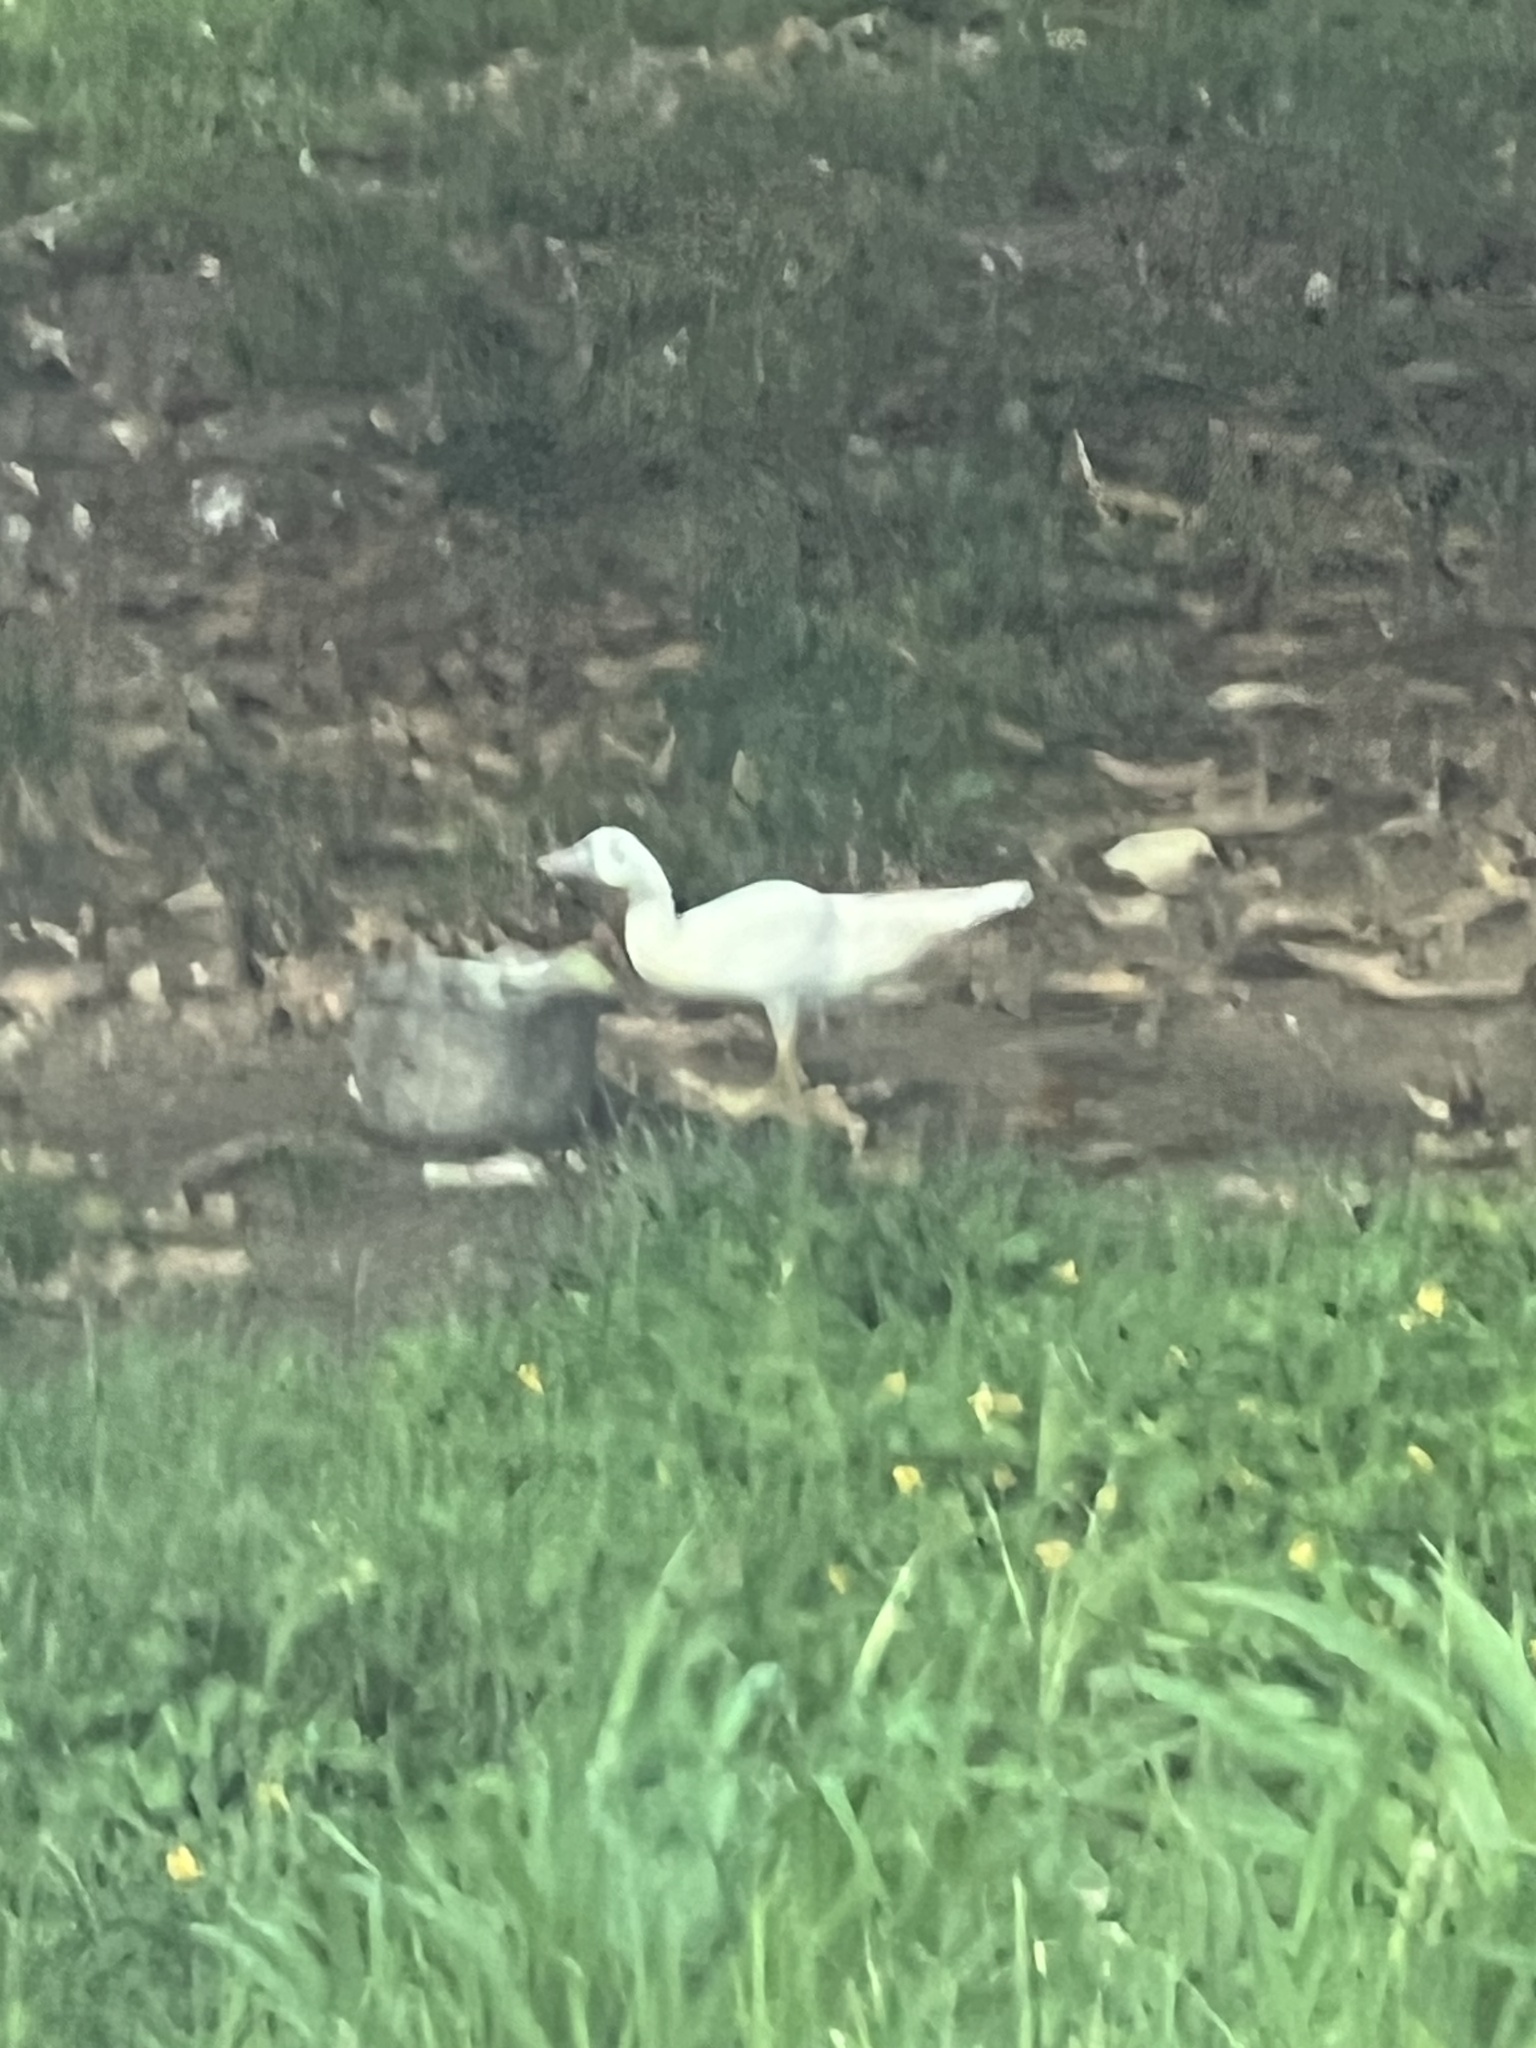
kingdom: Animalia
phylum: Chordata
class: Aves
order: Anseriformes
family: Anatidae
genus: Cairina
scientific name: Cairina moschata
